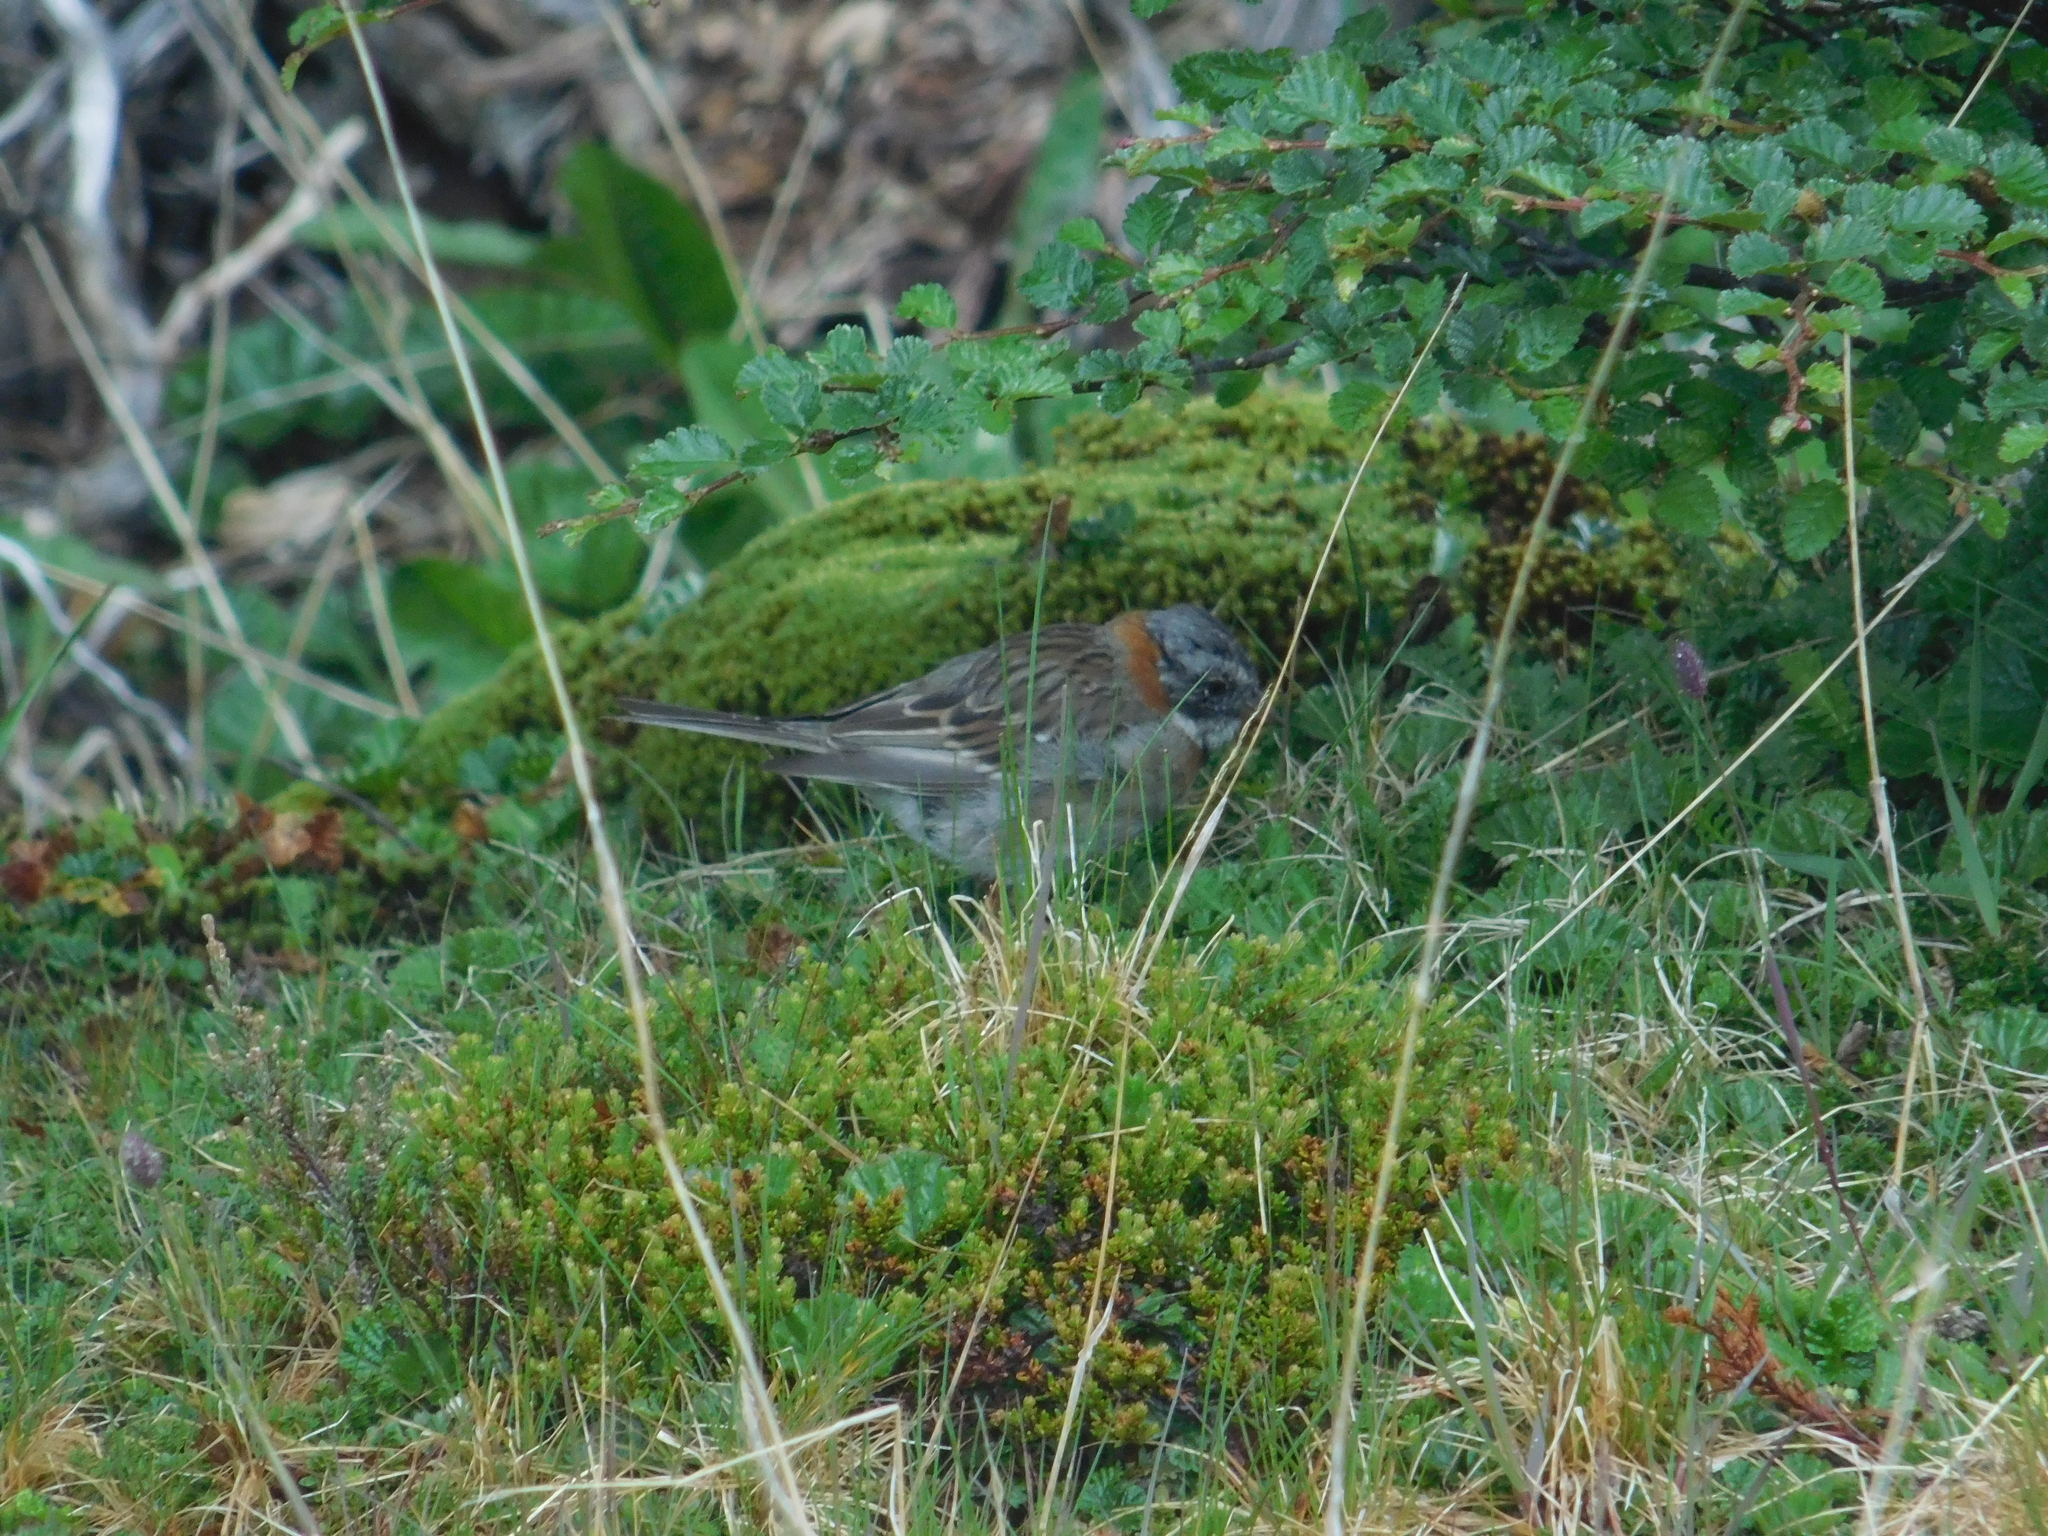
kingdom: Animalia
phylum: Chordata
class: Aves
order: Passeriformes
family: Passerellidae
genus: Zonotrichia
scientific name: Zonotrichia capensis
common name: Rufous-collared sparrow
